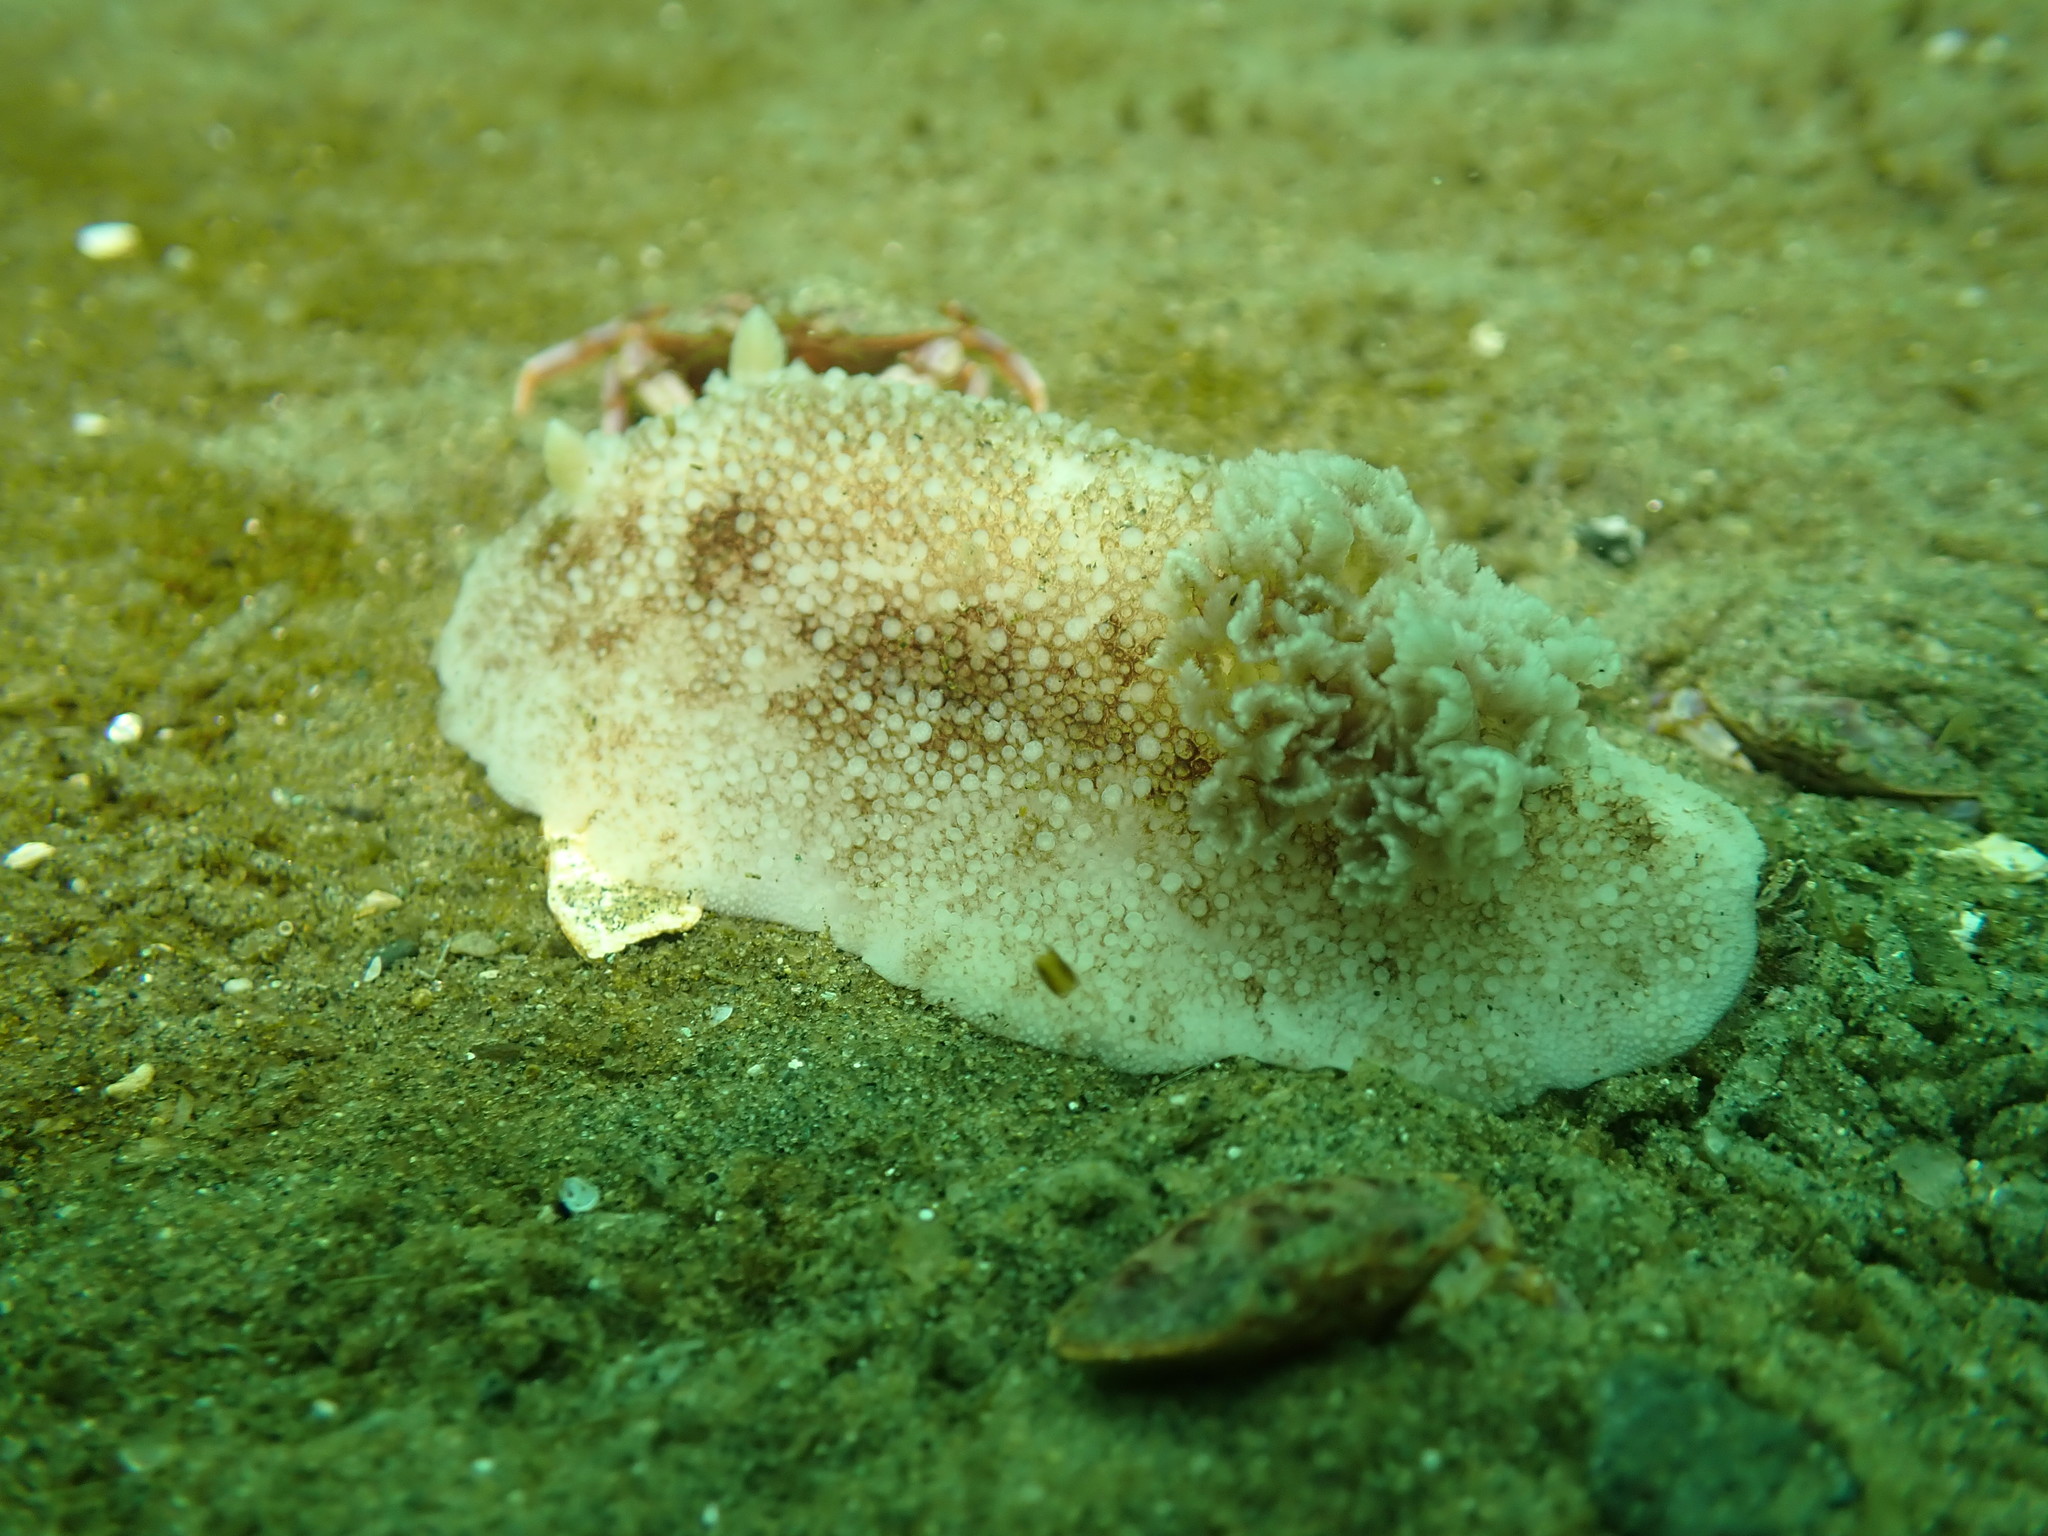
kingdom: Animalia
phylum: Mollusca
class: Gastropoda
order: Nudibranchia
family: Discodorididae
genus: Diaulula
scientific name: Diaulula variolata
